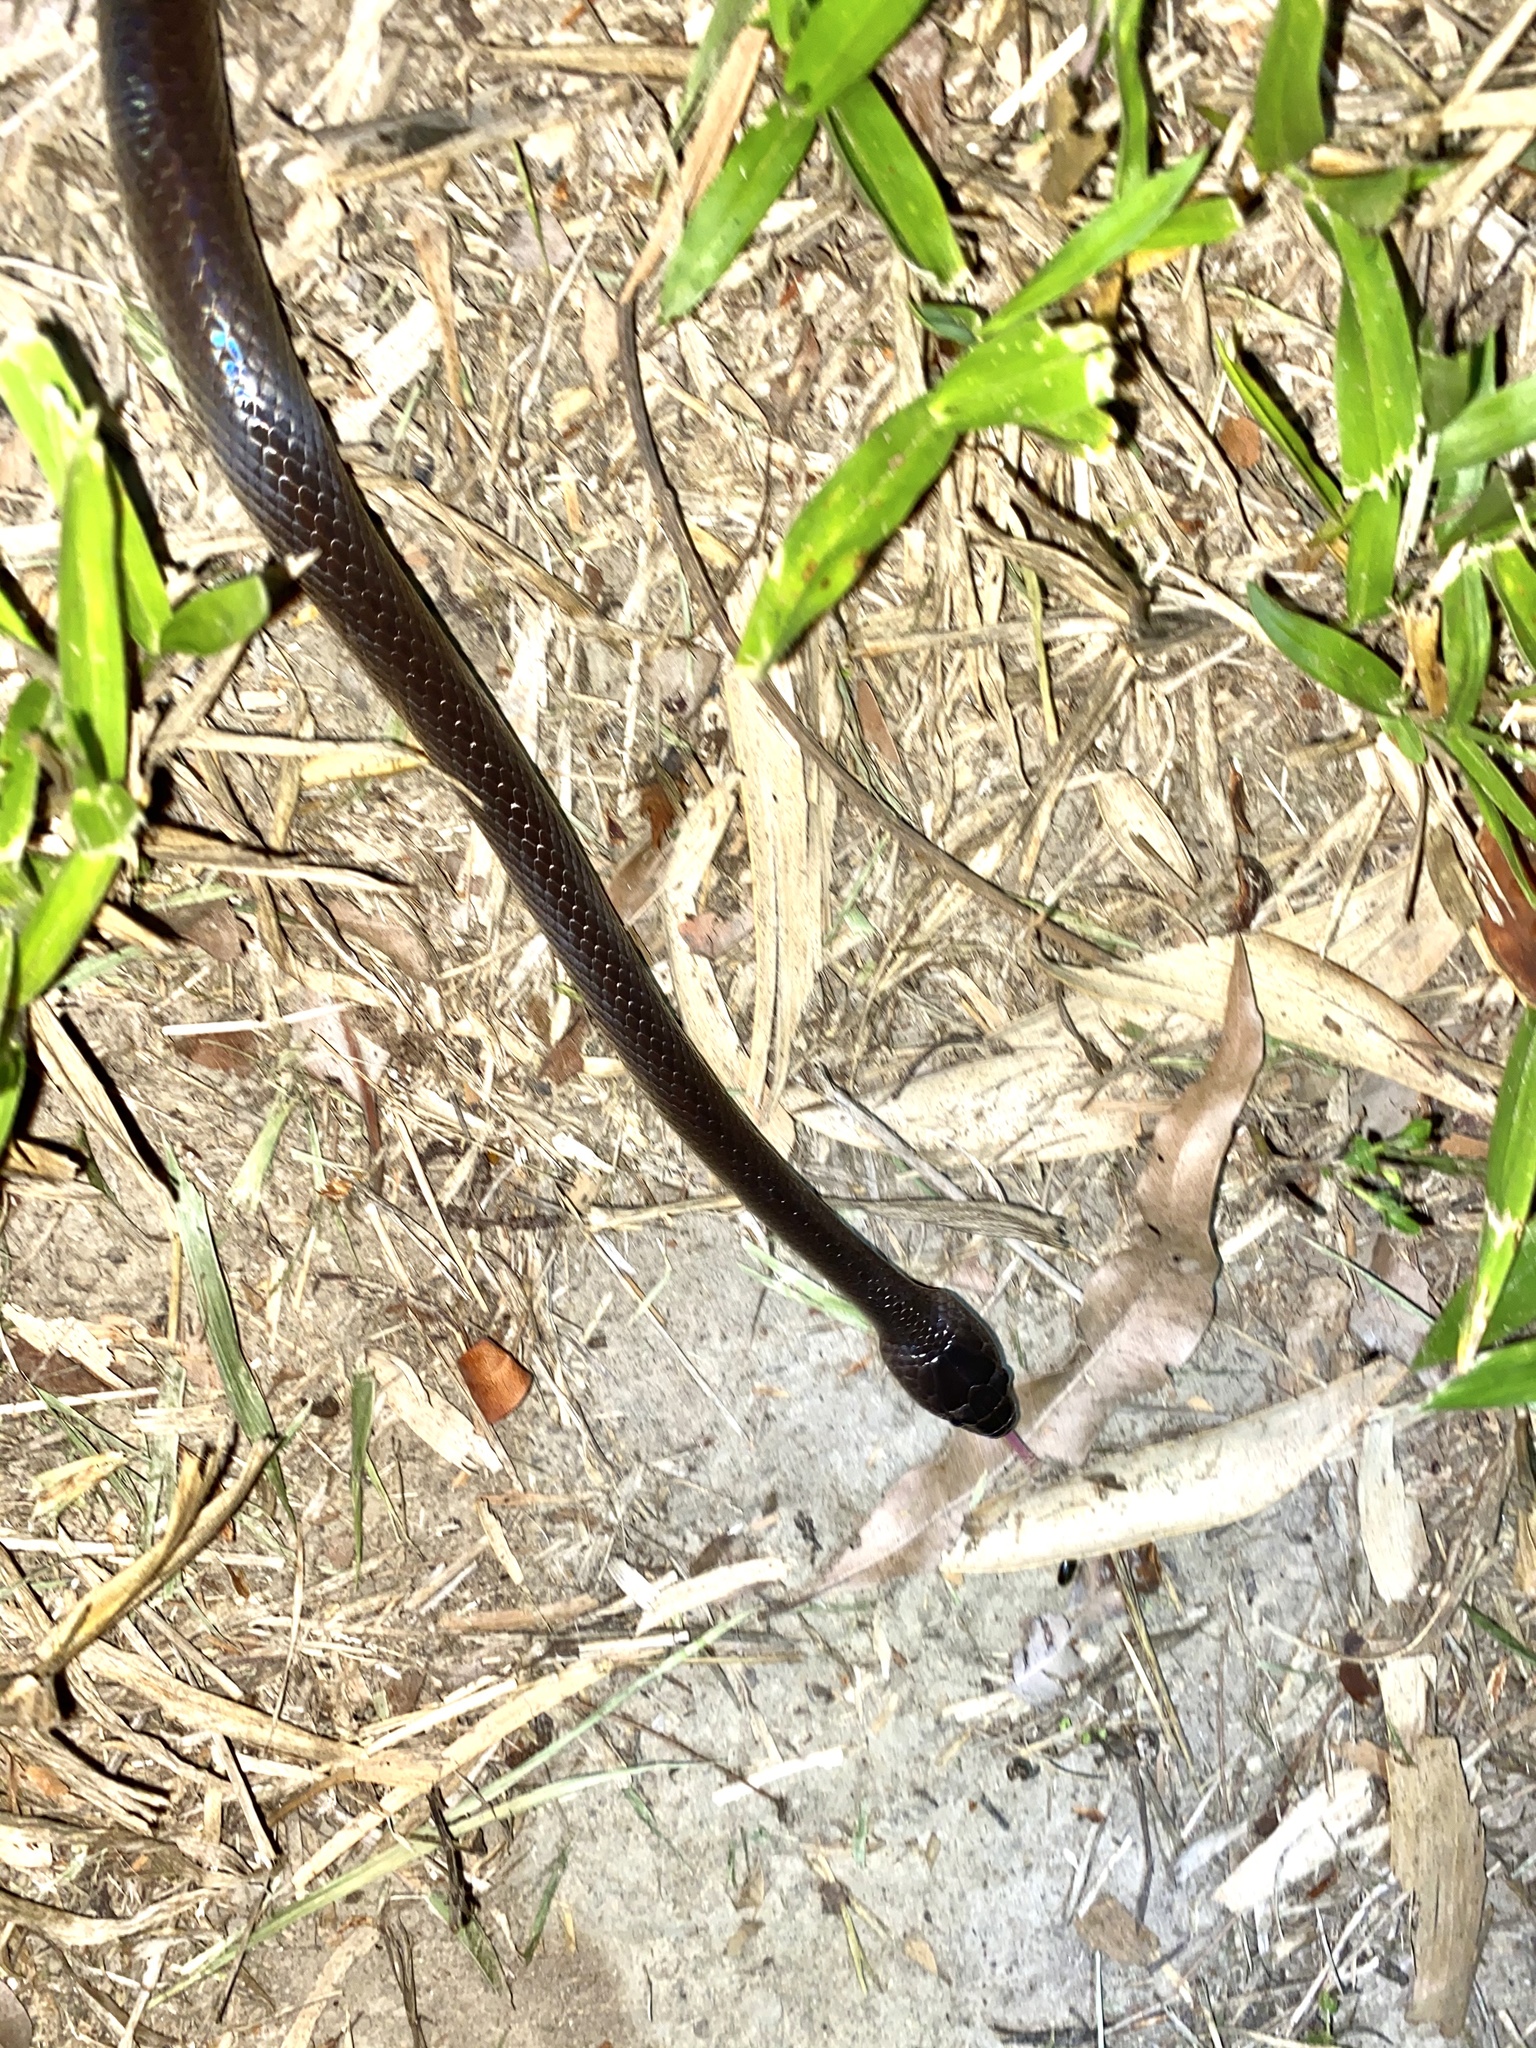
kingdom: Animalia
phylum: Chordata
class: Squamata
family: Colubridae
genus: Stegonotus
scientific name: Stegonotus australis
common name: Australian groundsnake
